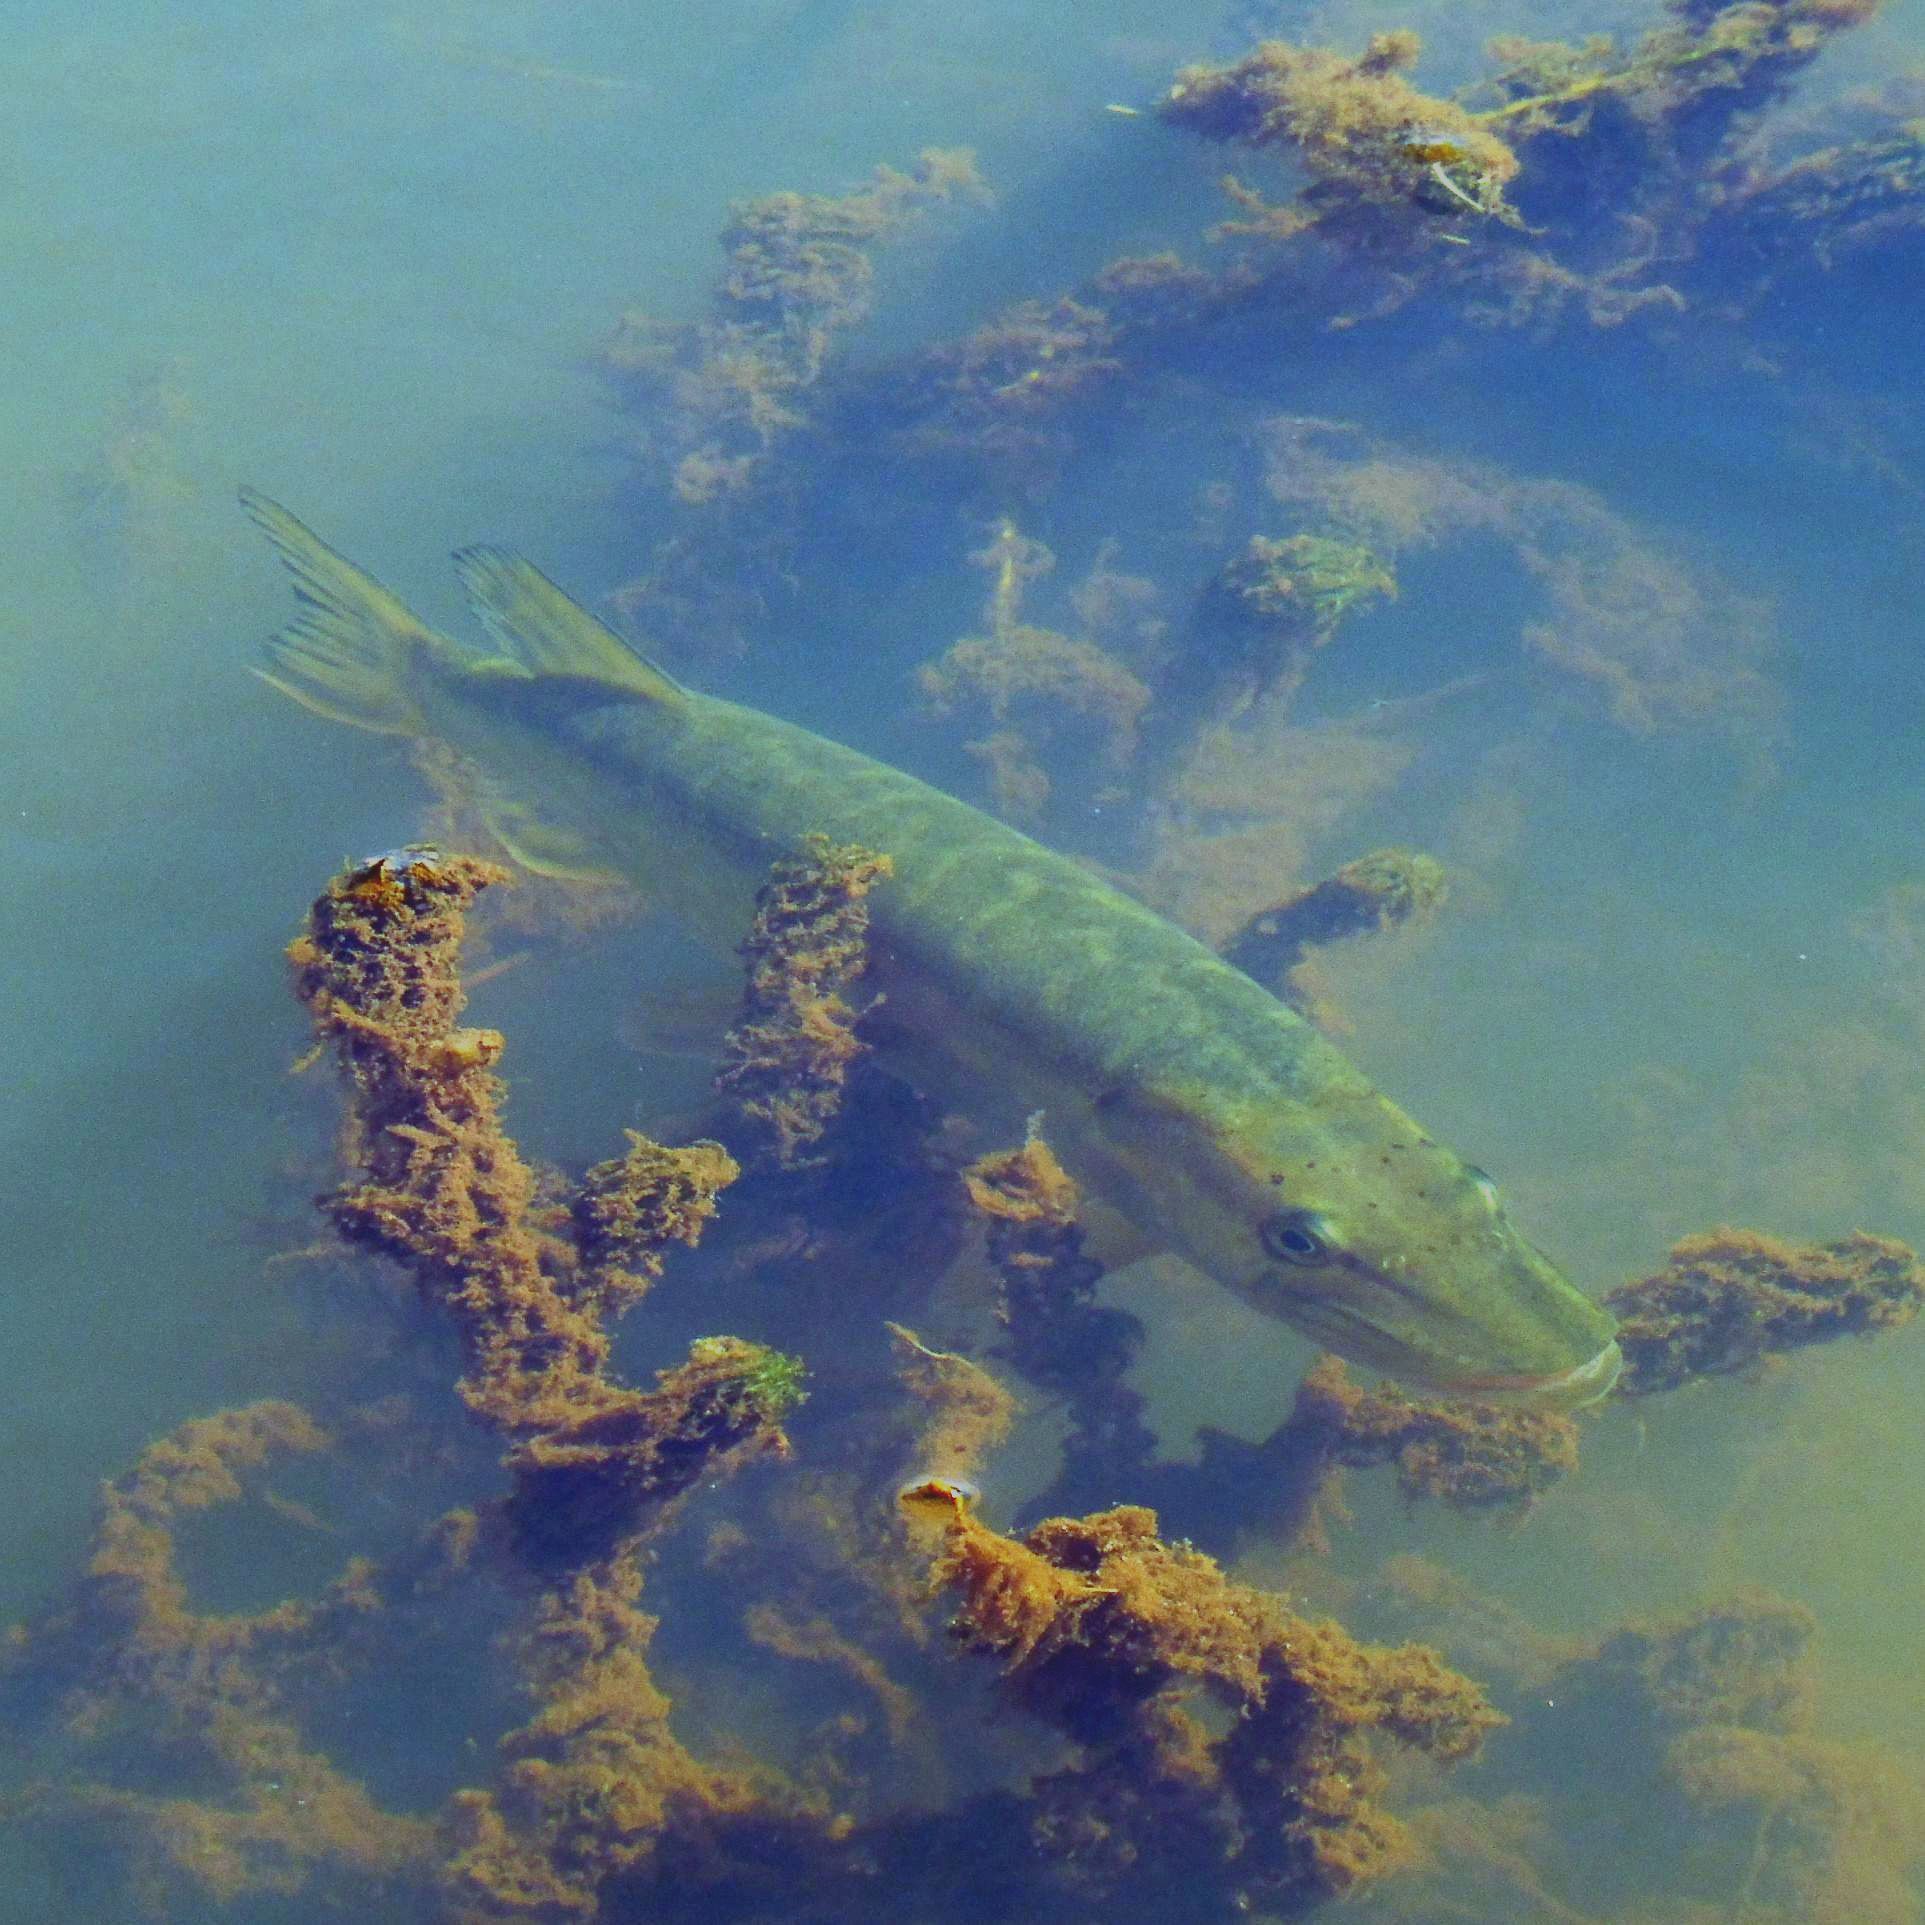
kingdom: Animalia
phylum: Chordata
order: Esociformes
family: Esocidae
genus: Esox
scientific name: Esox lucius
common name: Northern pike
